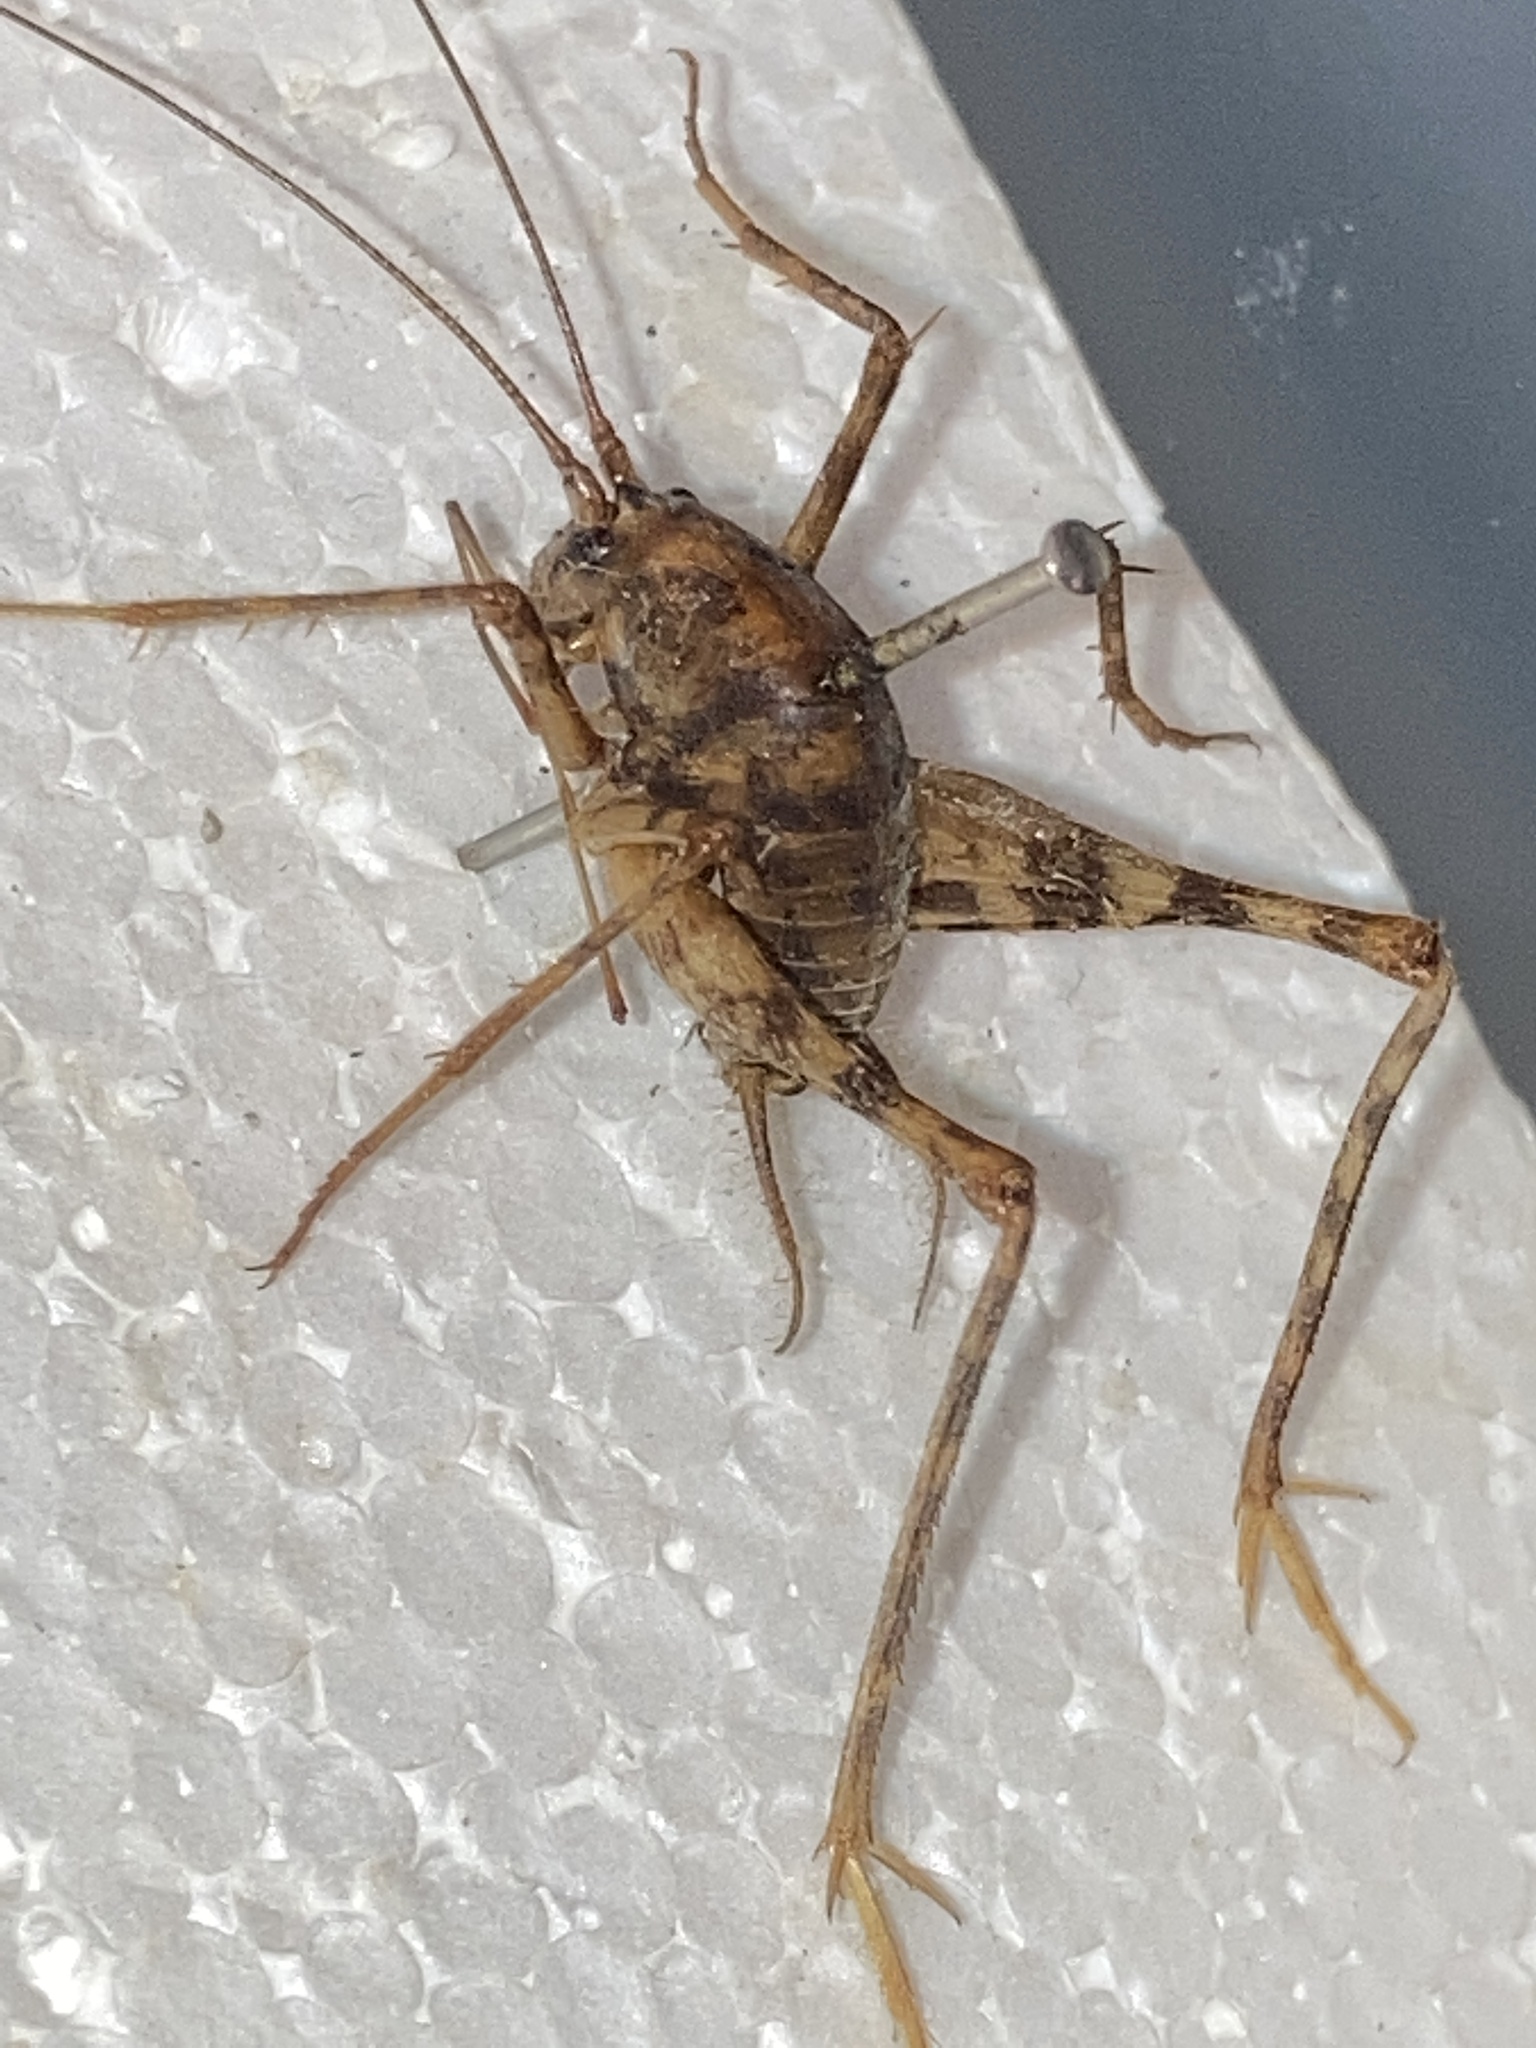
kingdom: Animalia
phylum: Arthropoda
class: Insecta
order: Orthoptera
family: Rhaphidophoridae
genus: Tachycines
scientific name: Tachycines asynamorus
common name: Greenhouse camel cricket
